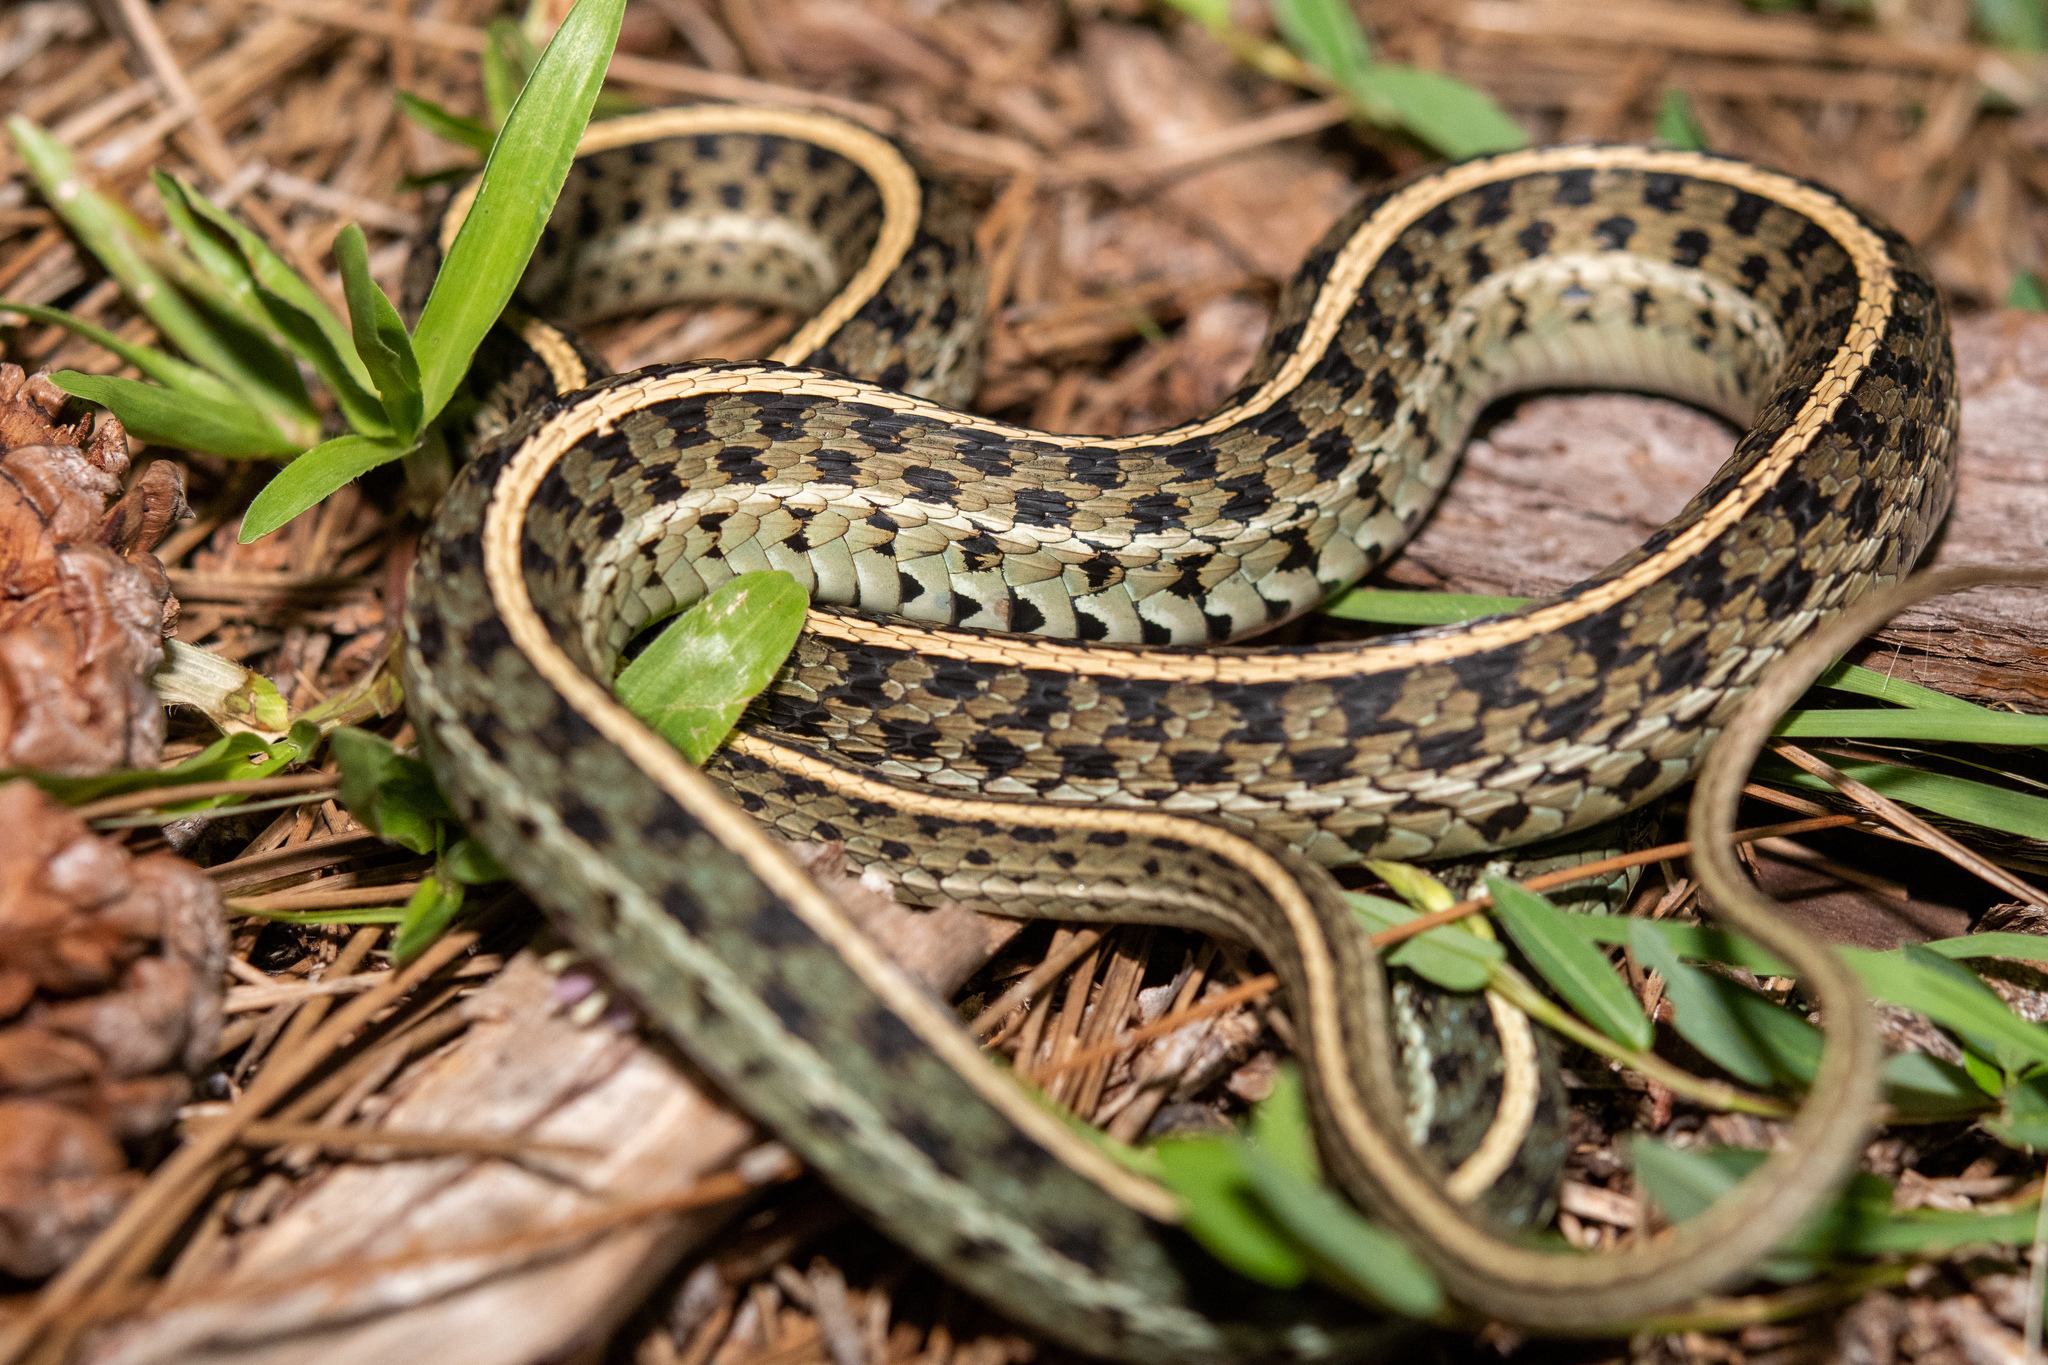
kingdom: Animalia
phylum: Chordata
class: Squamata
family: Colubridae
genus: Thamnophis
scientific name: Thamnophis sirtalis
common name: Common garter snake
